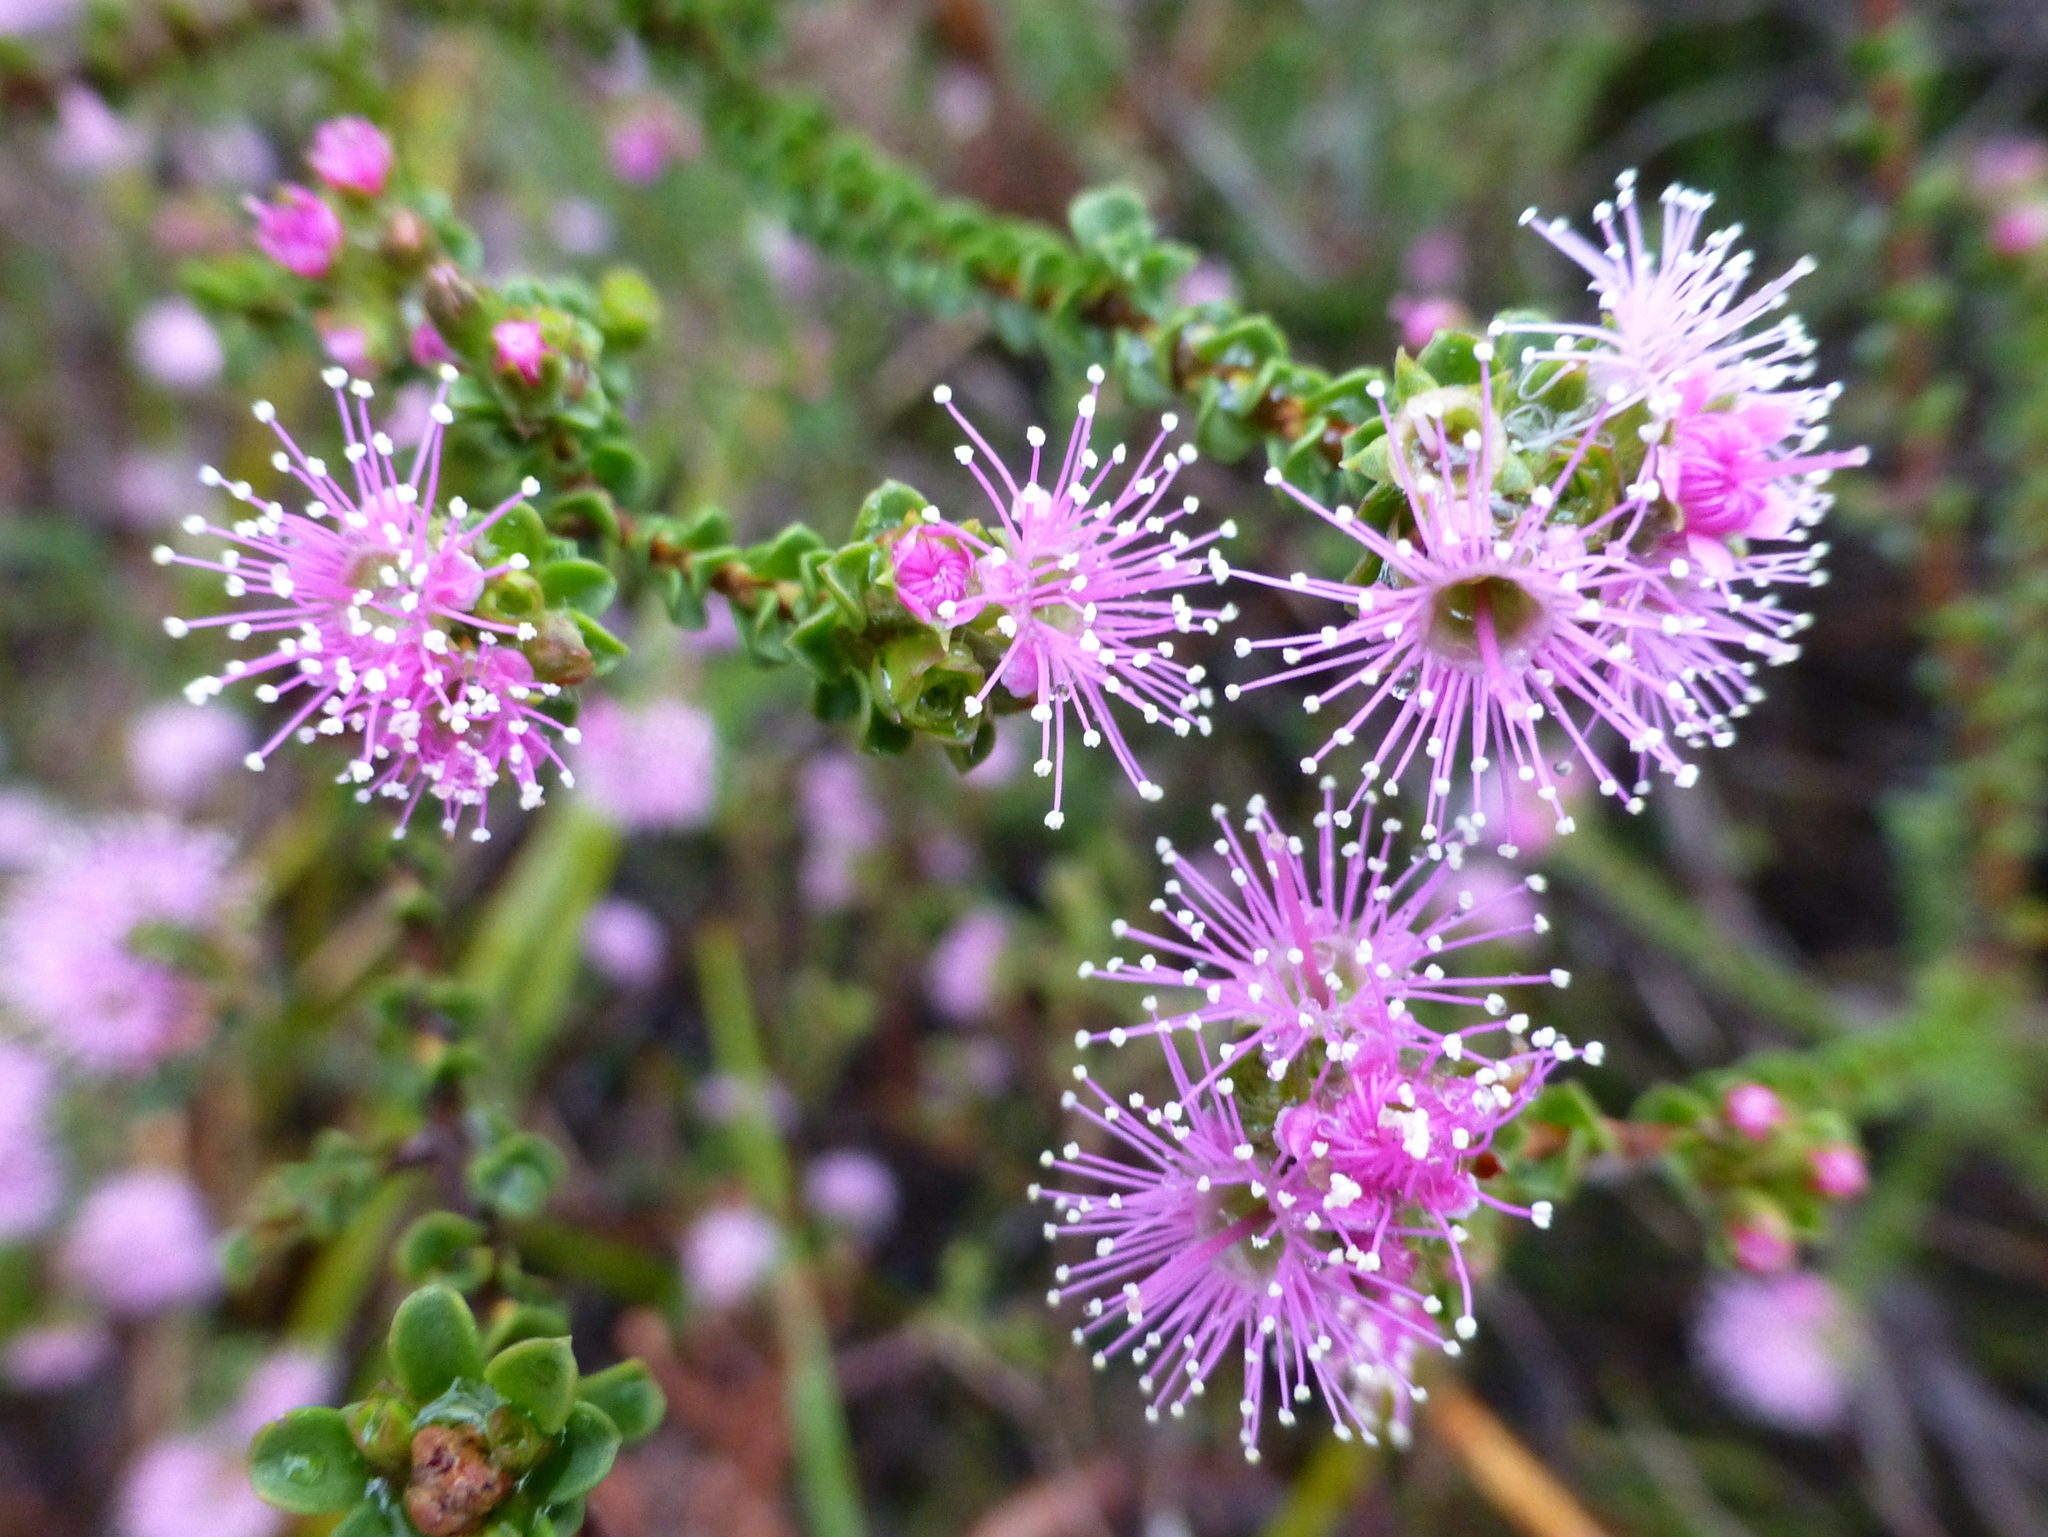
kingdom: Plantae
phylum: Tracheophyta
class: Magnoliopsida
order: Myrtales
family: Myrtaceae
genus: Kunzea
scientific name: Kunzea parvifolia
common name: Violet kunzea
